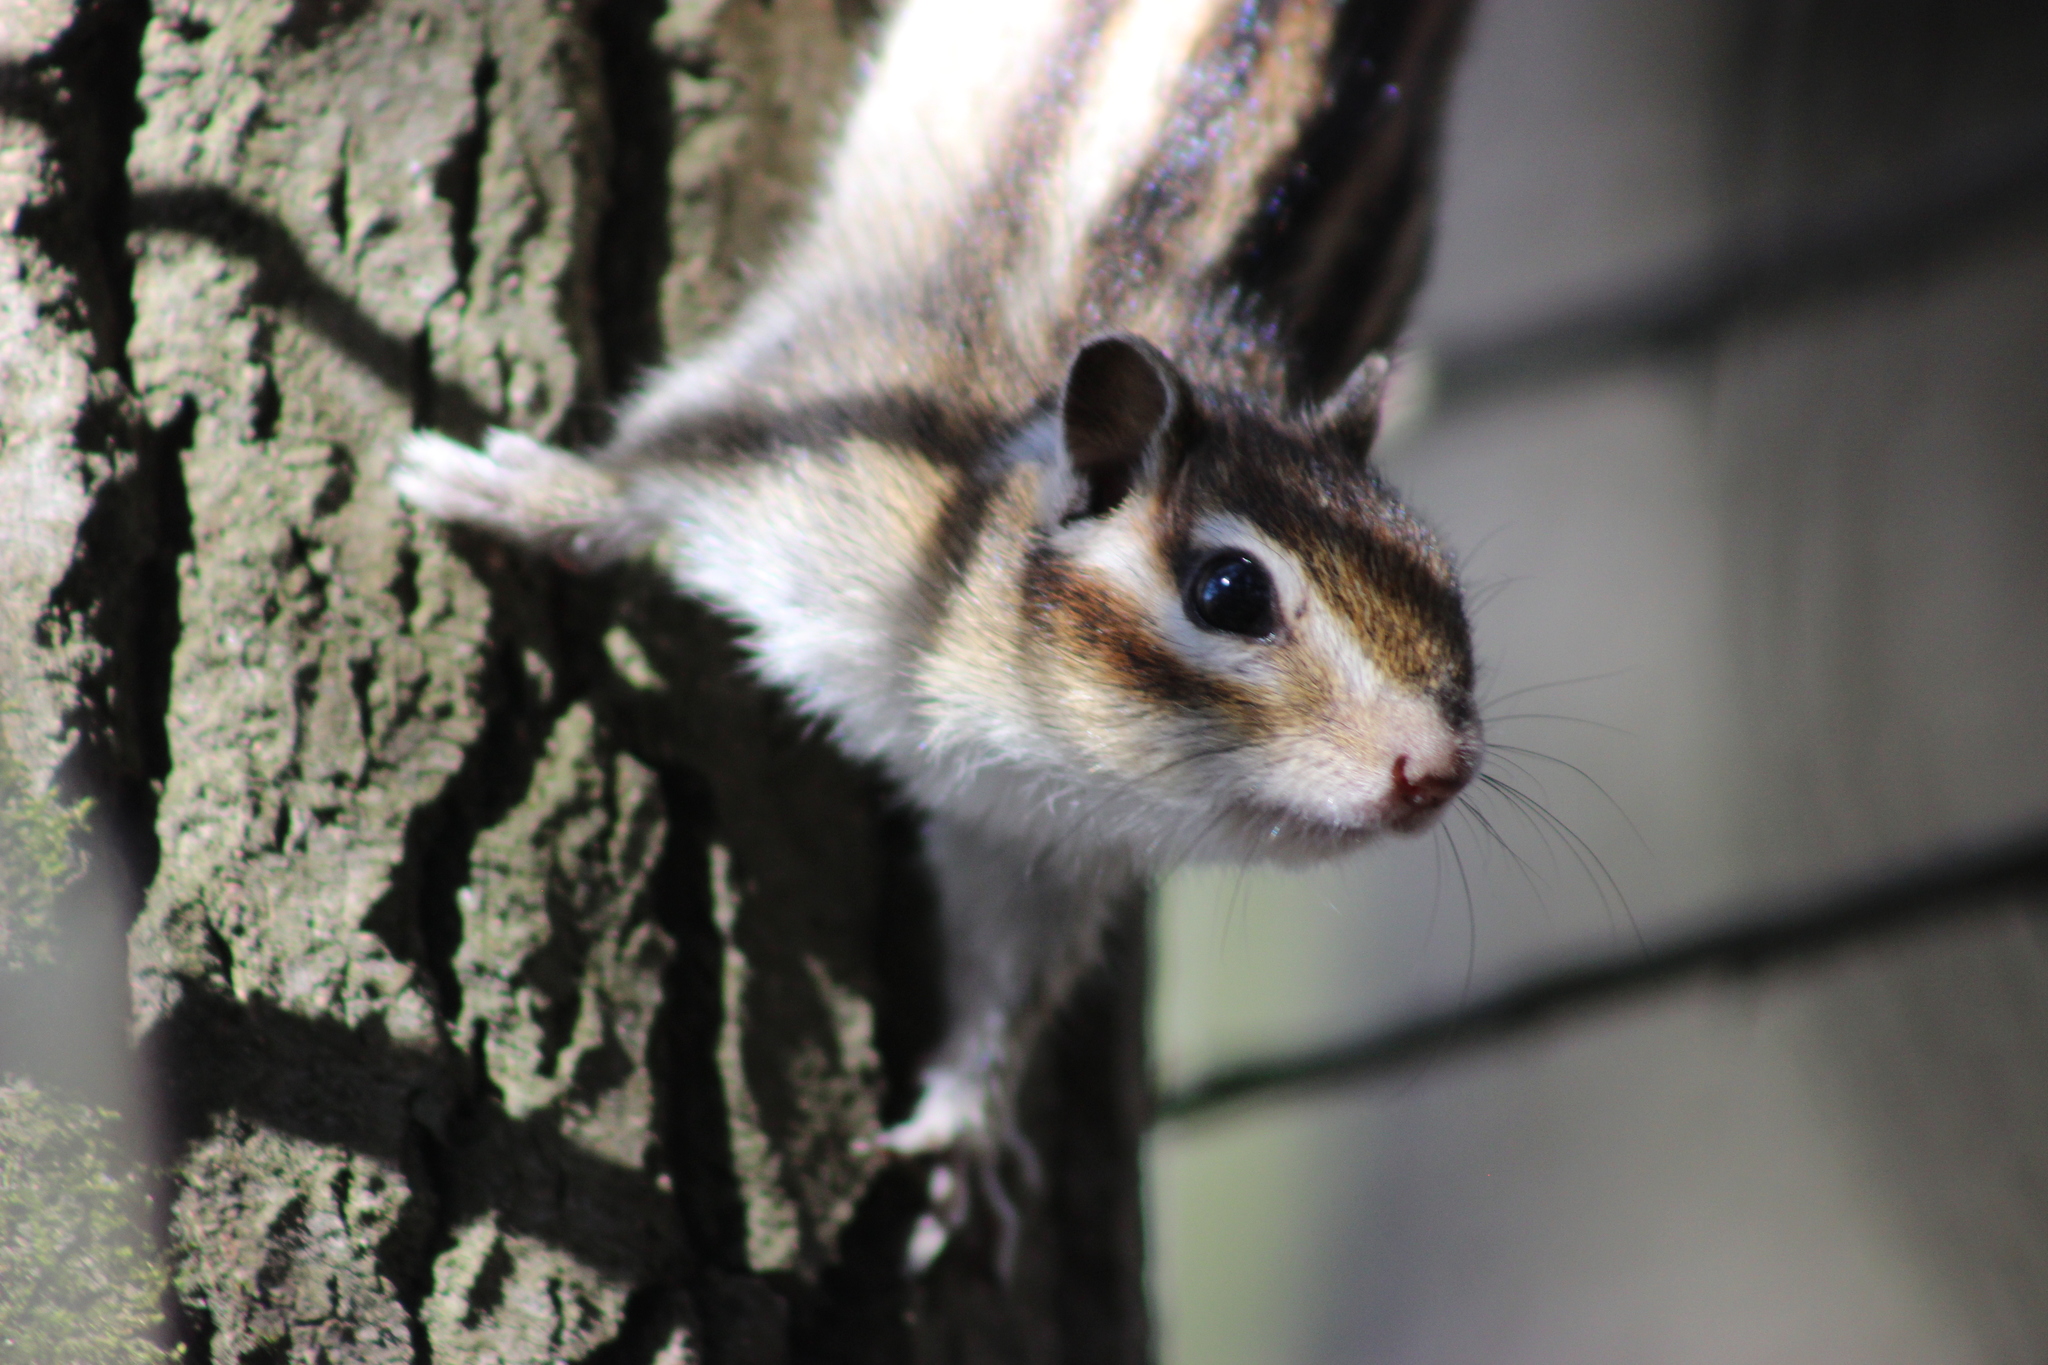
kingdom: Animalia
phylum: Chordata
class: Mammalia
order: Rodentia
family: Sciuridae
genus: Tamias
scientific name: Tamias sibiricus
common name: Siberian chipmunk
